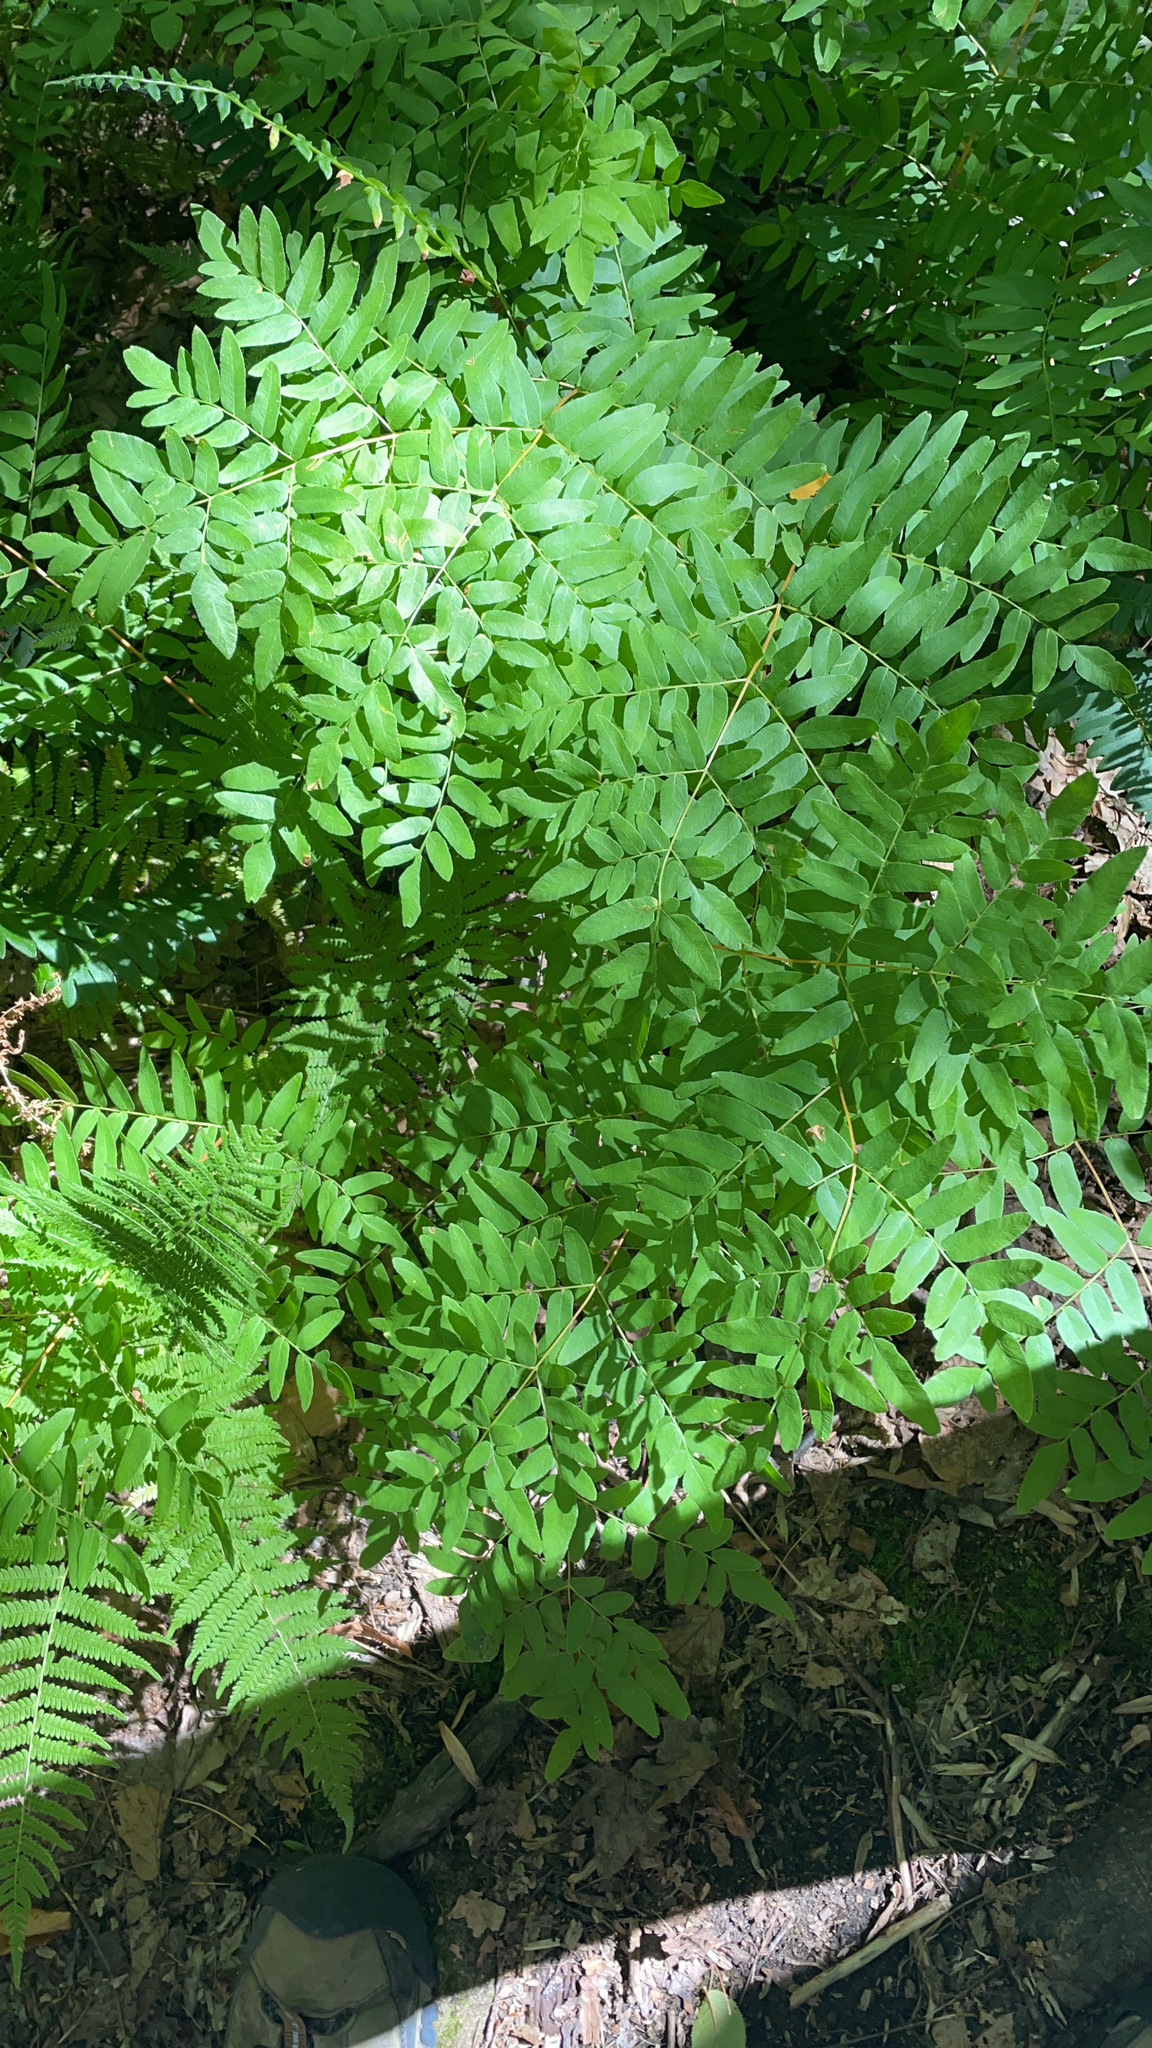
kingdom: Plantae
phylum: Tracheophyta
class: Polypodiopsida
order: Osmundales
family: Osmundaceae
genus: Osmunda
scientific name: Osmunda spectabilis
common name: American royal fern
